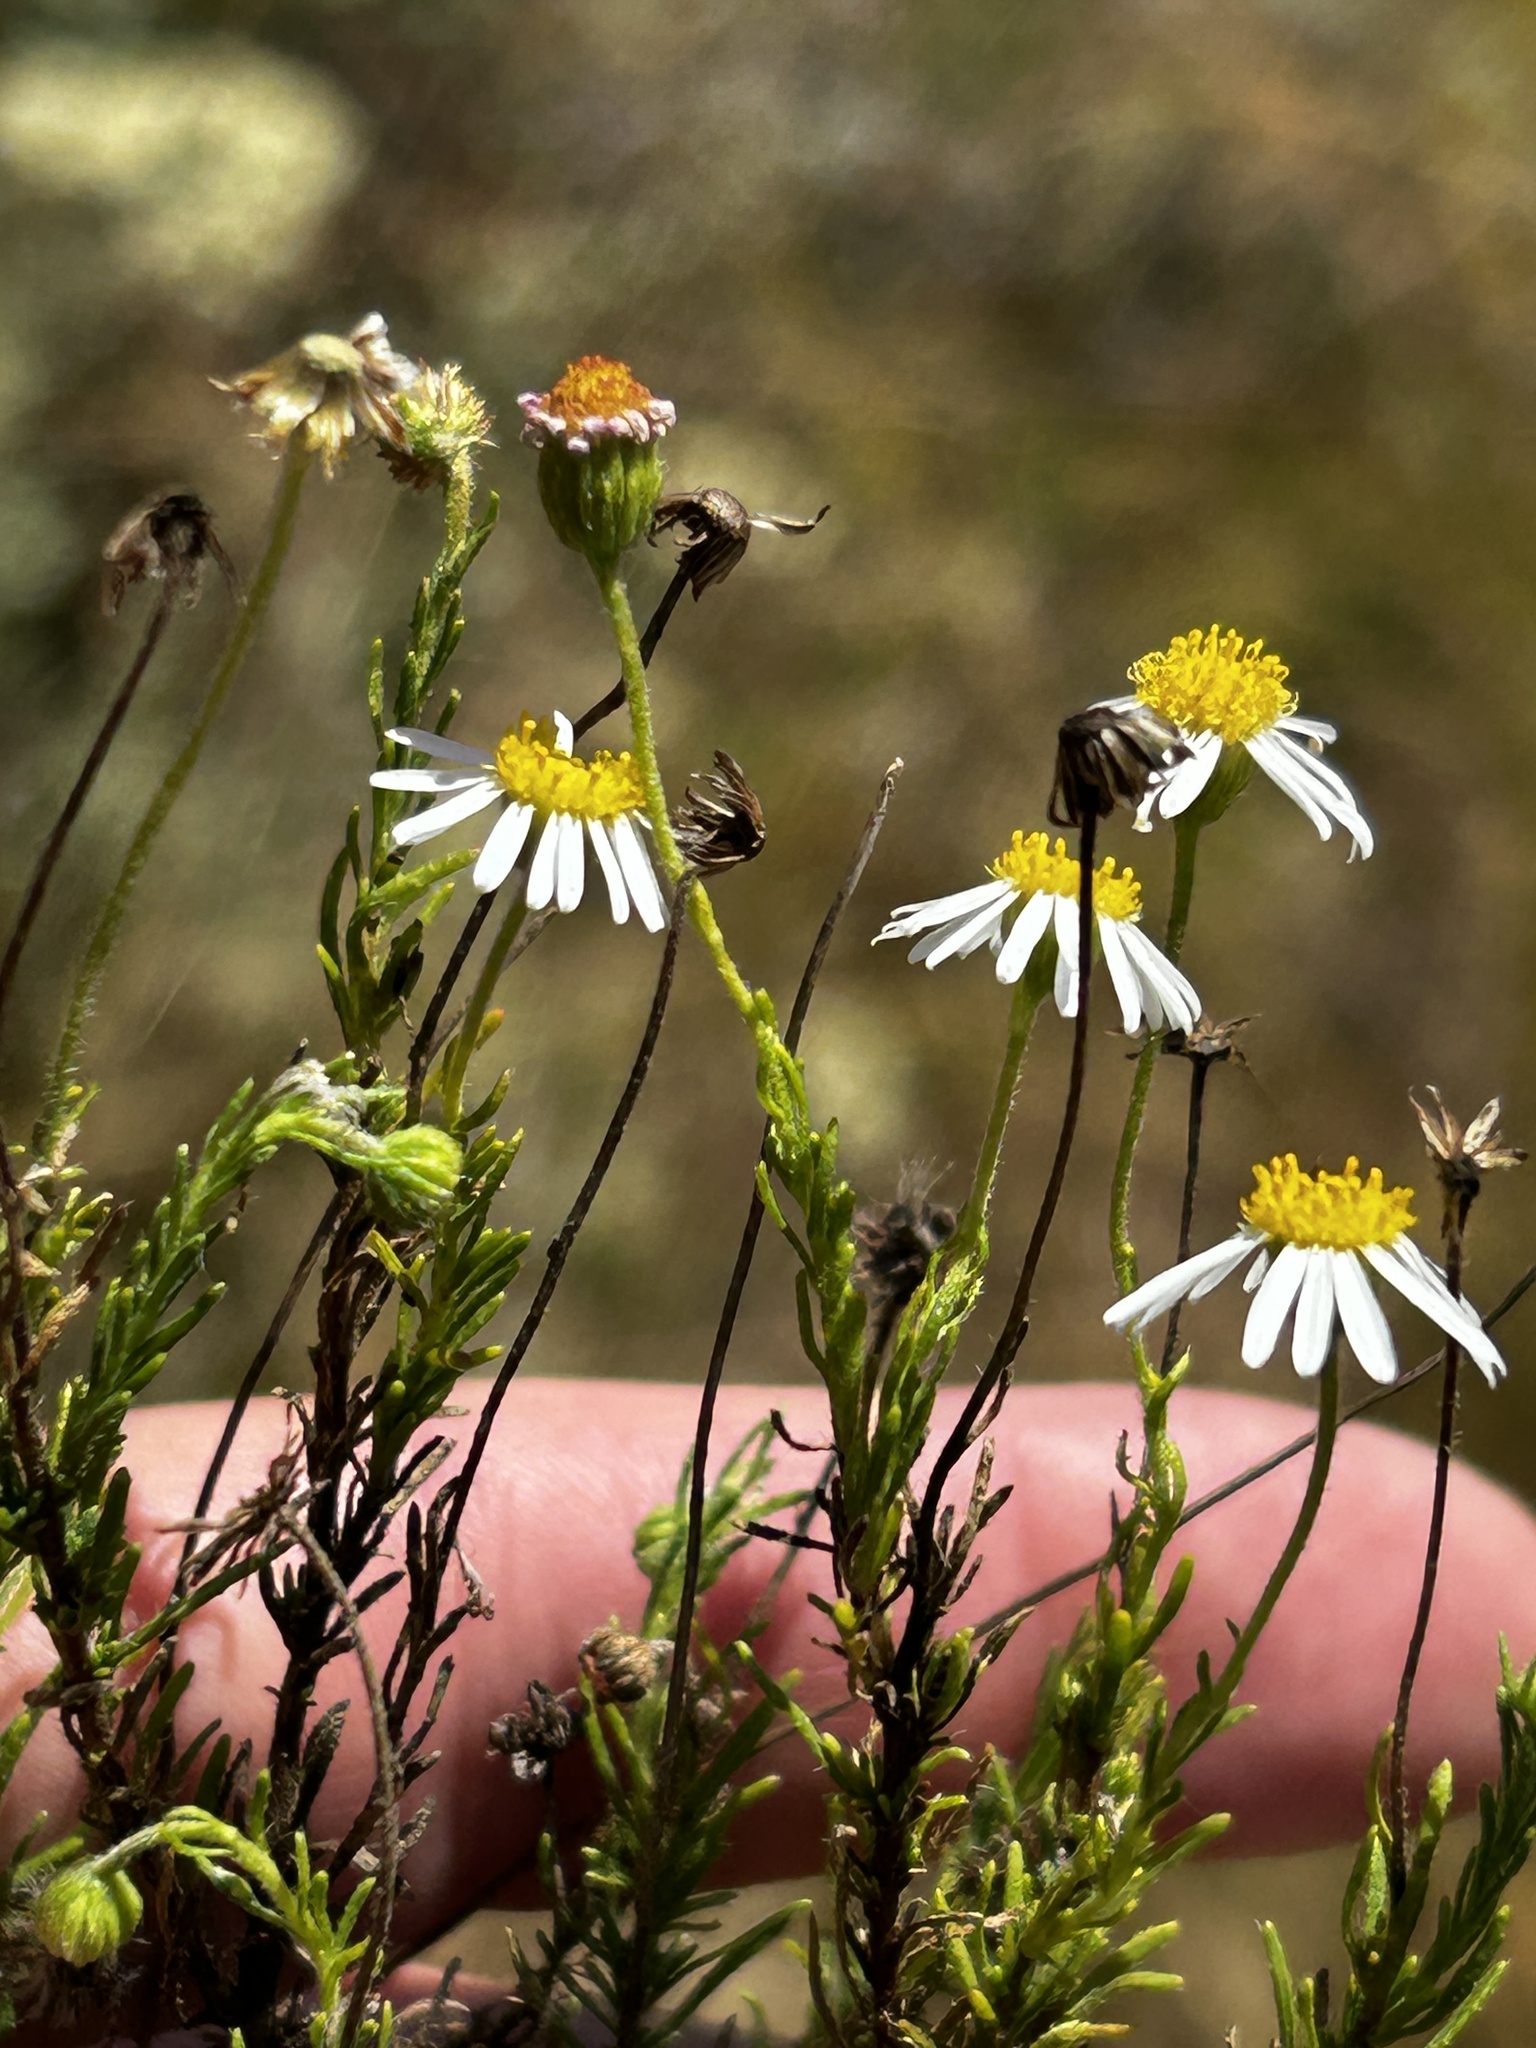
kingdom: Plantae
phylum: Tracheophyta
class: Magnoliopsida
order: Asterales
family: Asteraceae
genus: Felicia
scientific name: Felicia muricata
